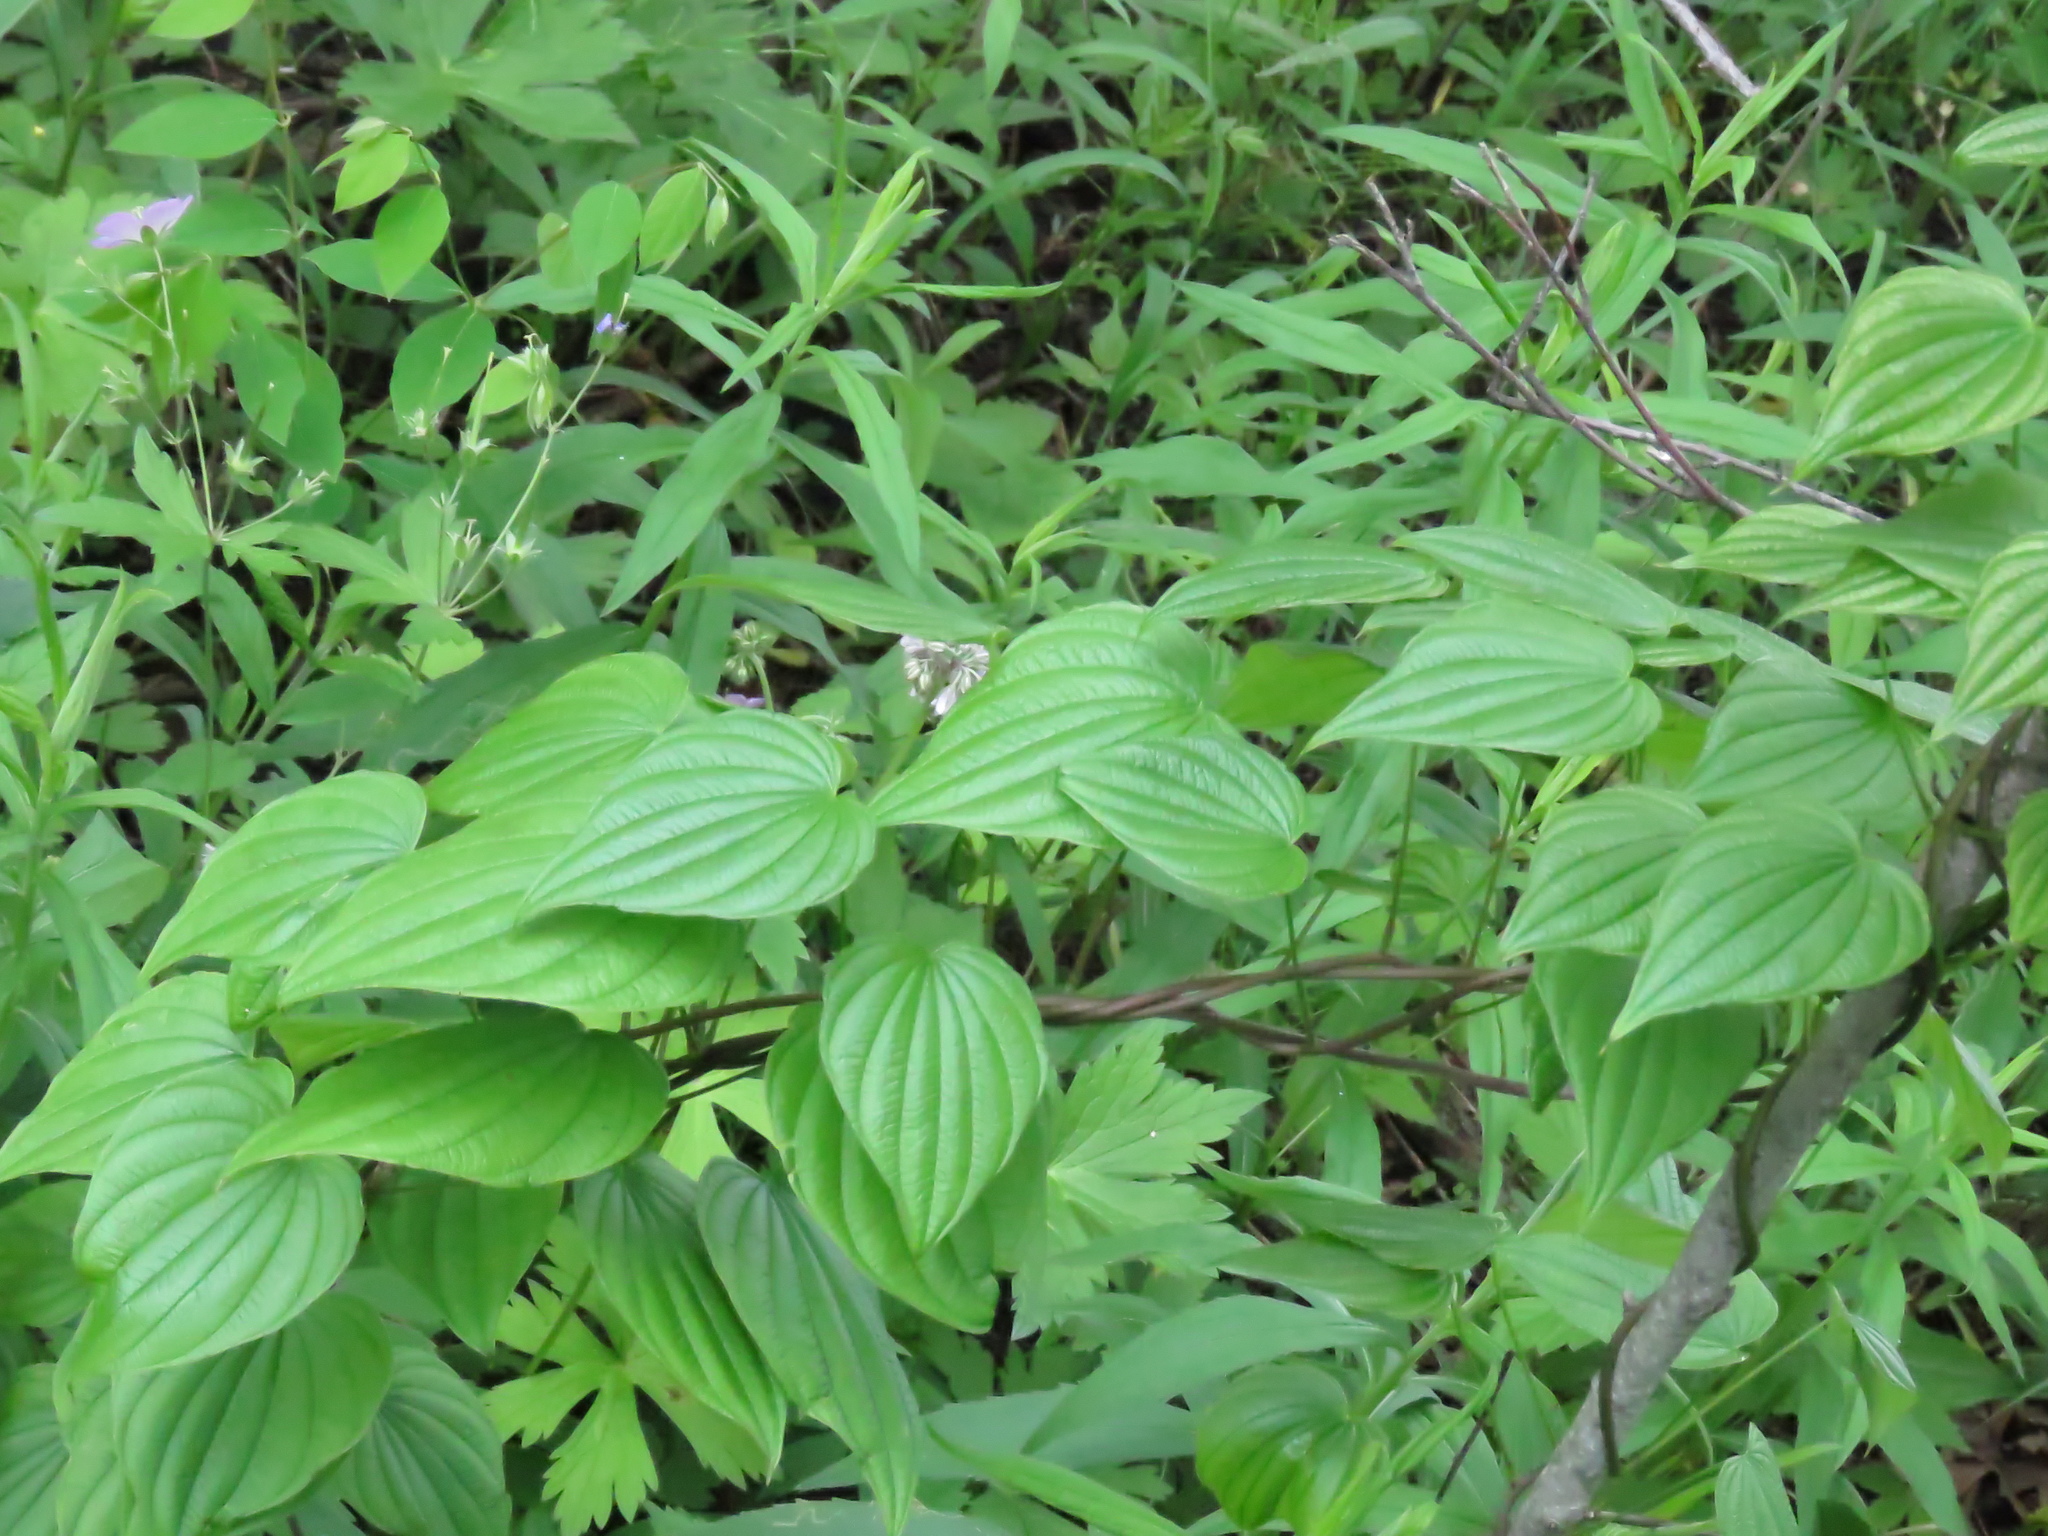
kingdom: Plantae
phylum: Tracheophyta
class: Liliopsida
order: Dioscoreales
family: Dioscoreaceae
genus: Dioscorea
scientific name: Dioscorea villosa
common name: Wild yam
